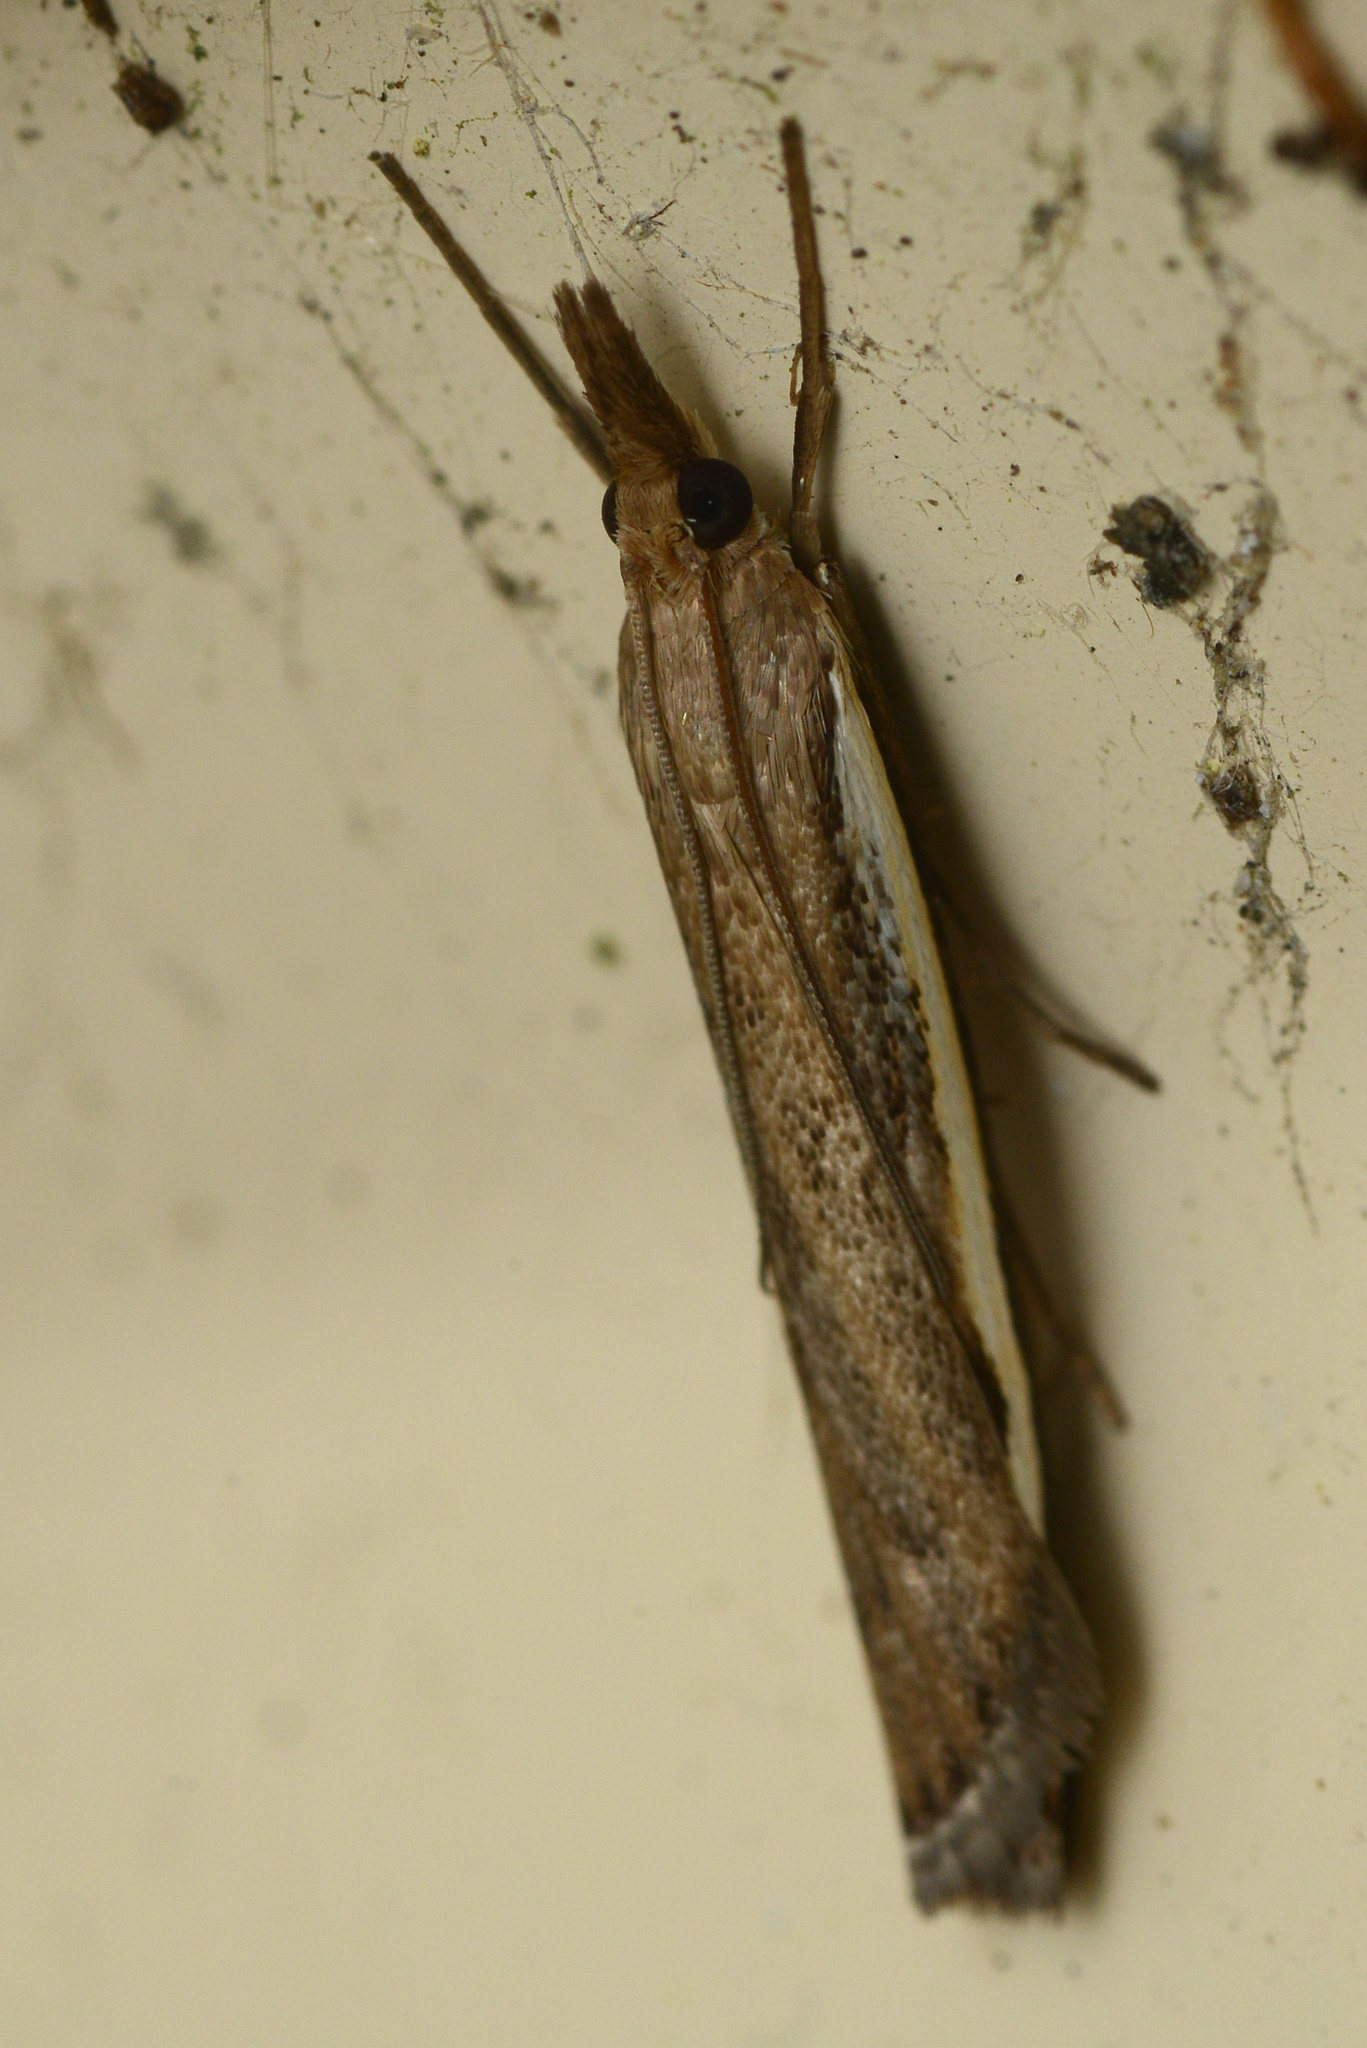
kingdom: Animalia
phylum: Arthropoda
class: Insecta
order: Lepidoptera
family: Crambidae
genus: Orocrambus
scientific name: Orocrambus flexuosellus
